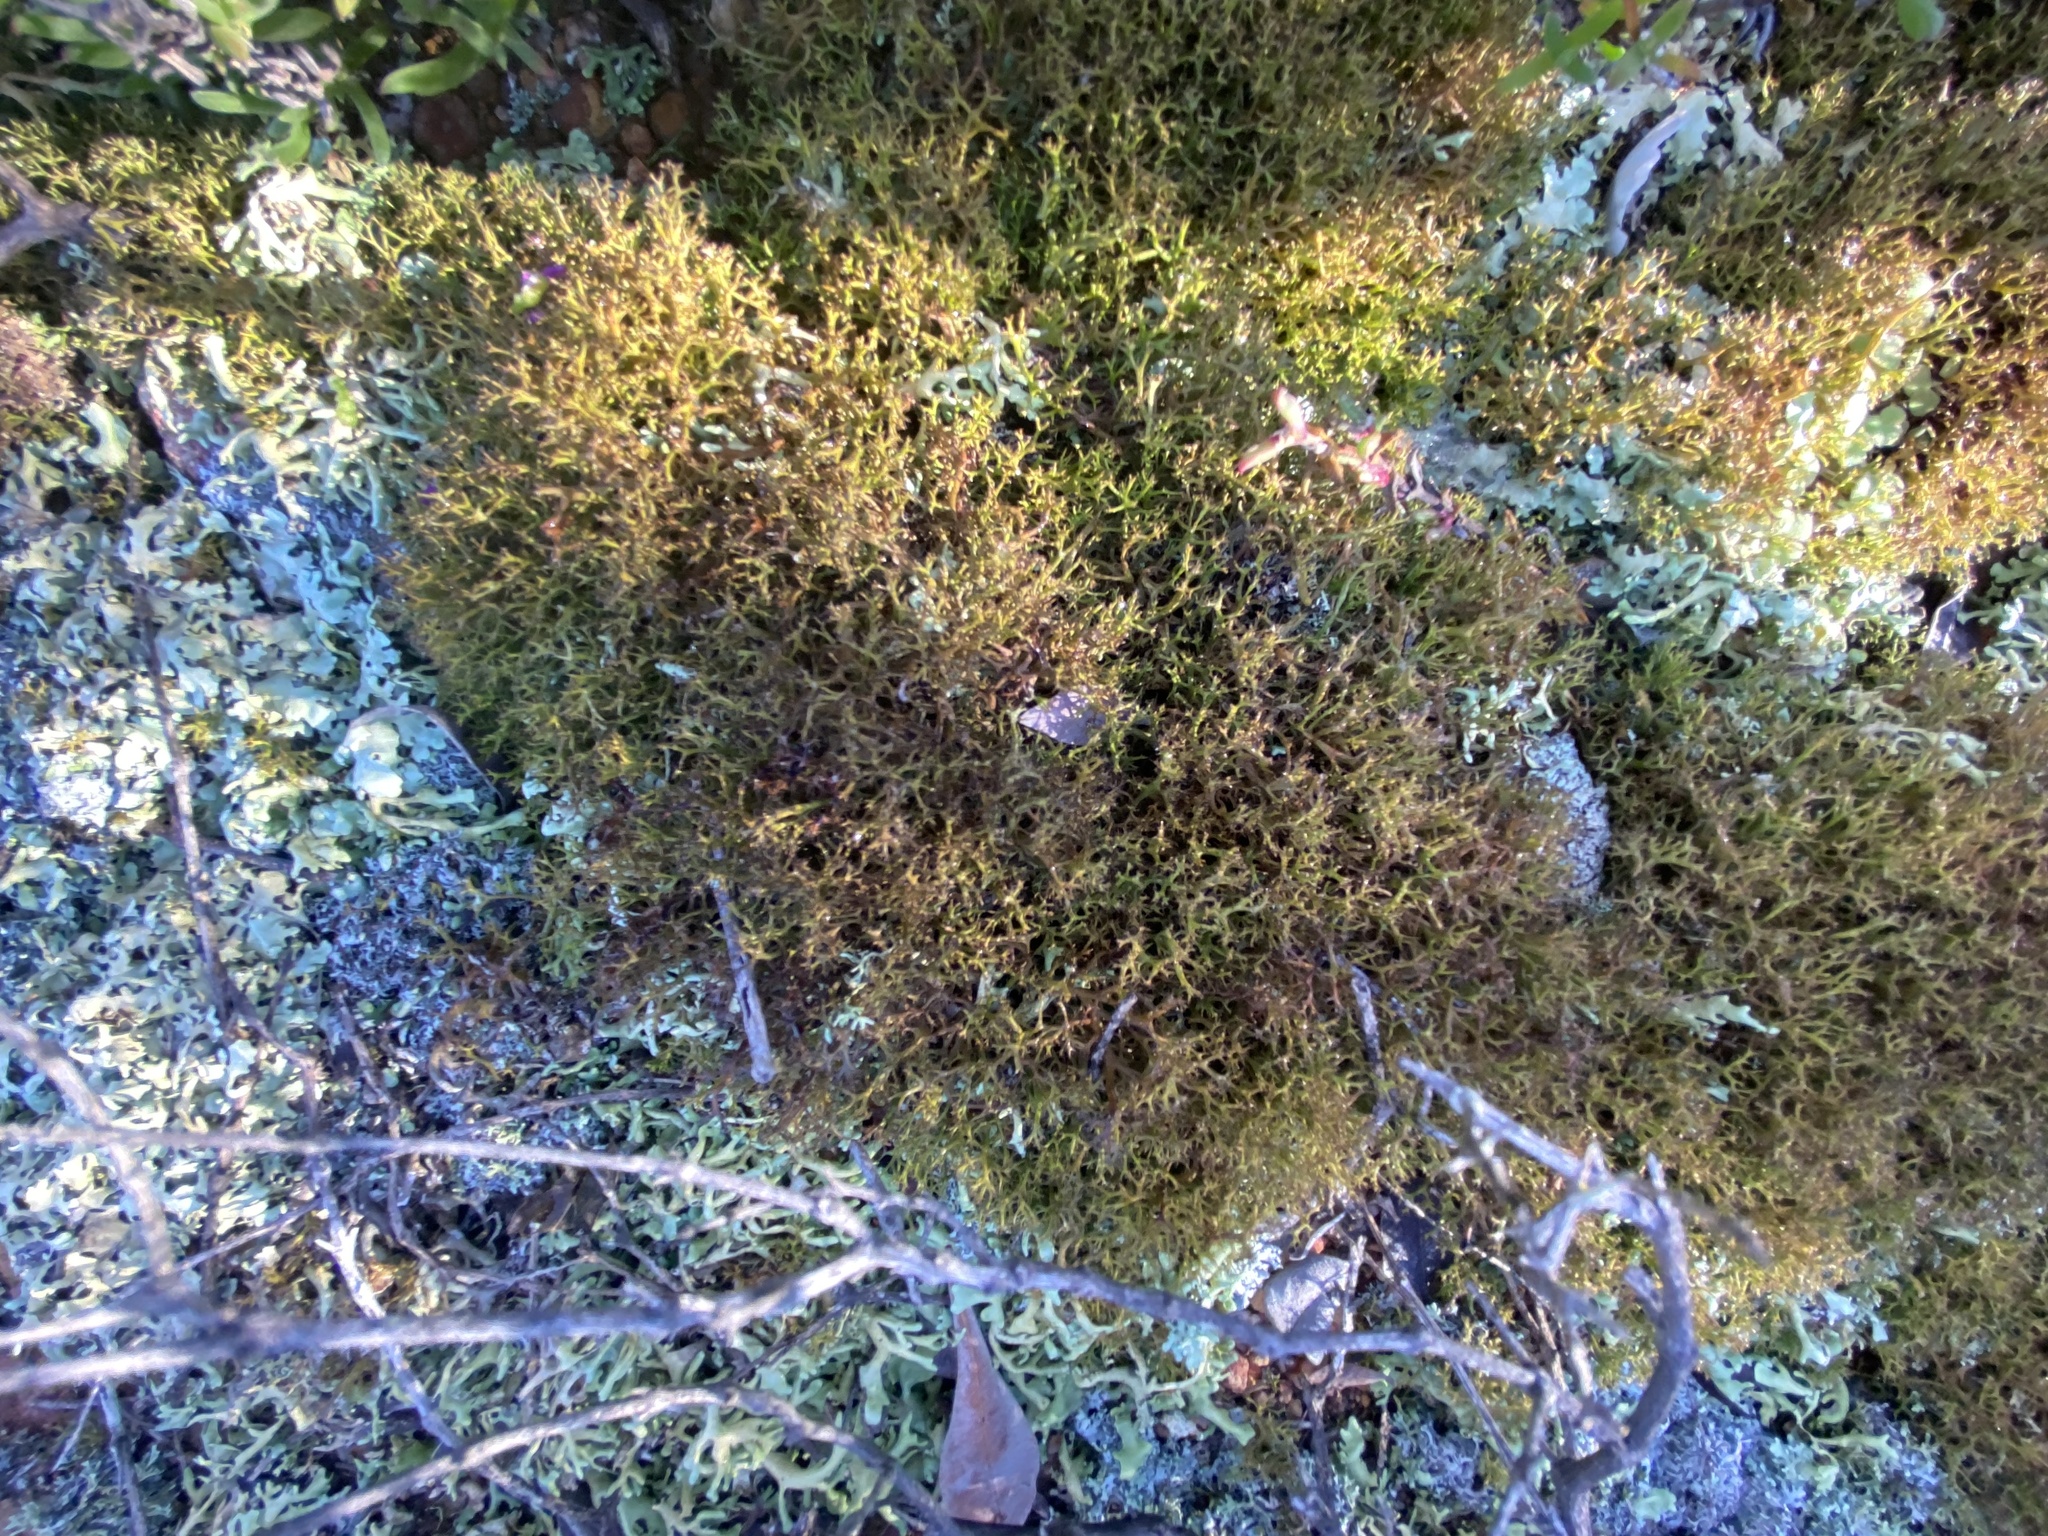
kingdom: Fungi
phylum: Ascomycota
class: Lecanoromycetes
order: Lecanorales
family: Cladoniaceae
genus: Cladia
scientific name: Cladia aggregata
